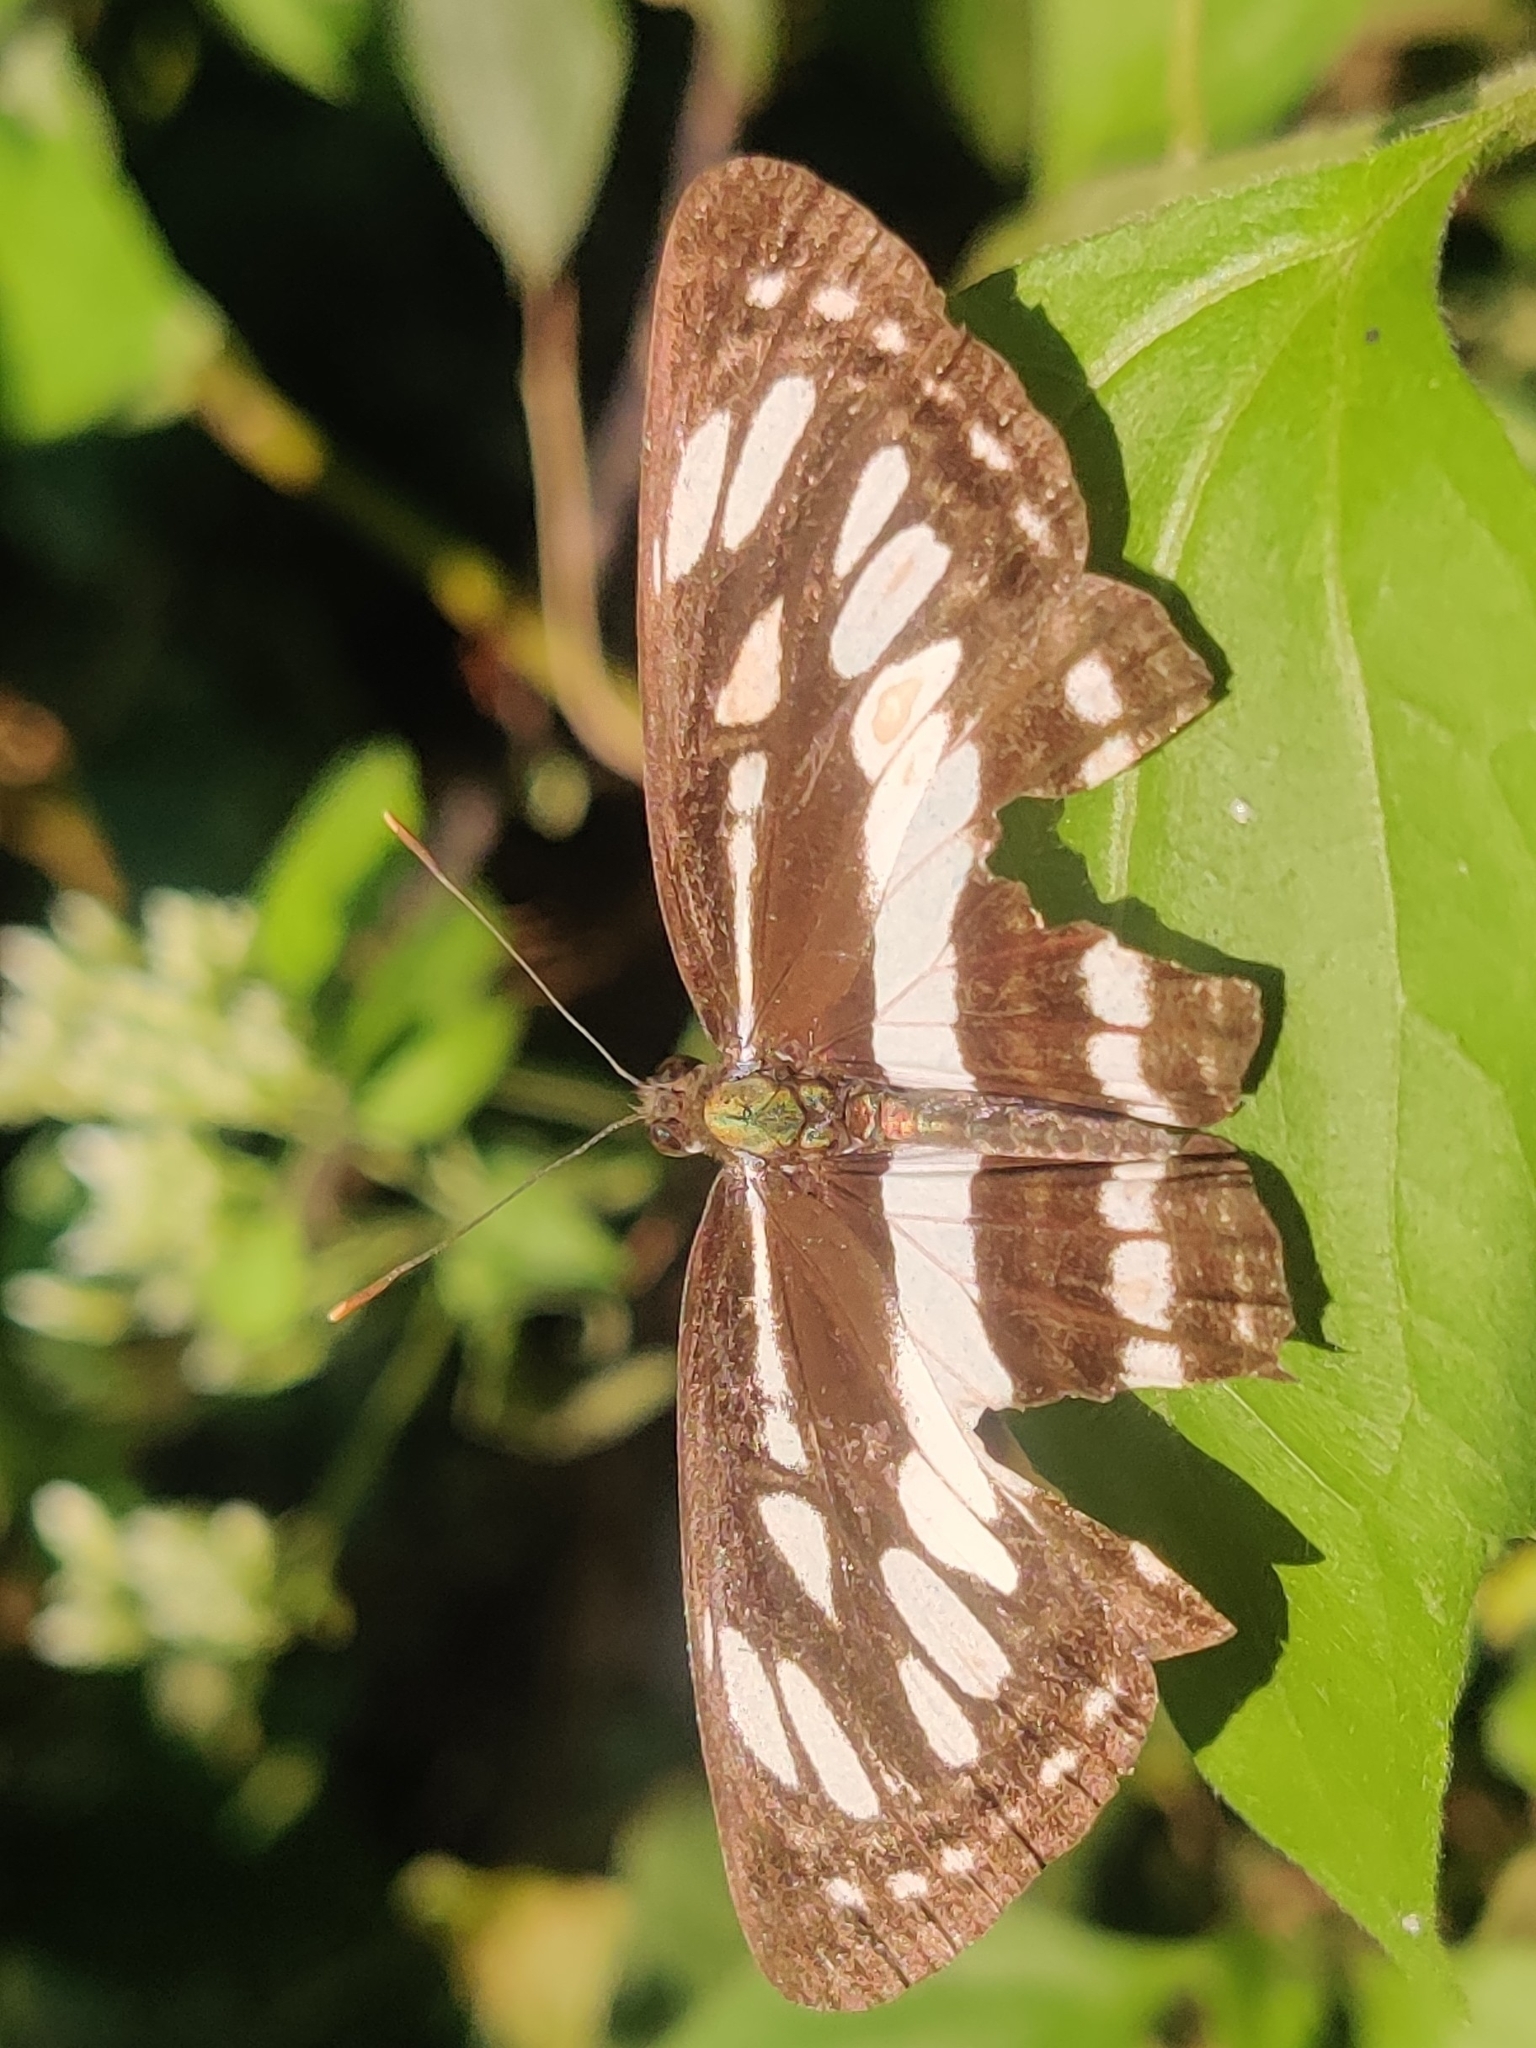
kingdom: Animalia
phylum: Arthropoda
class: Insecta
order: Lepidoptera
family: Nymphalidae
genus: Neptis
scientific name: Neptis hylas
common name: Common sailer
